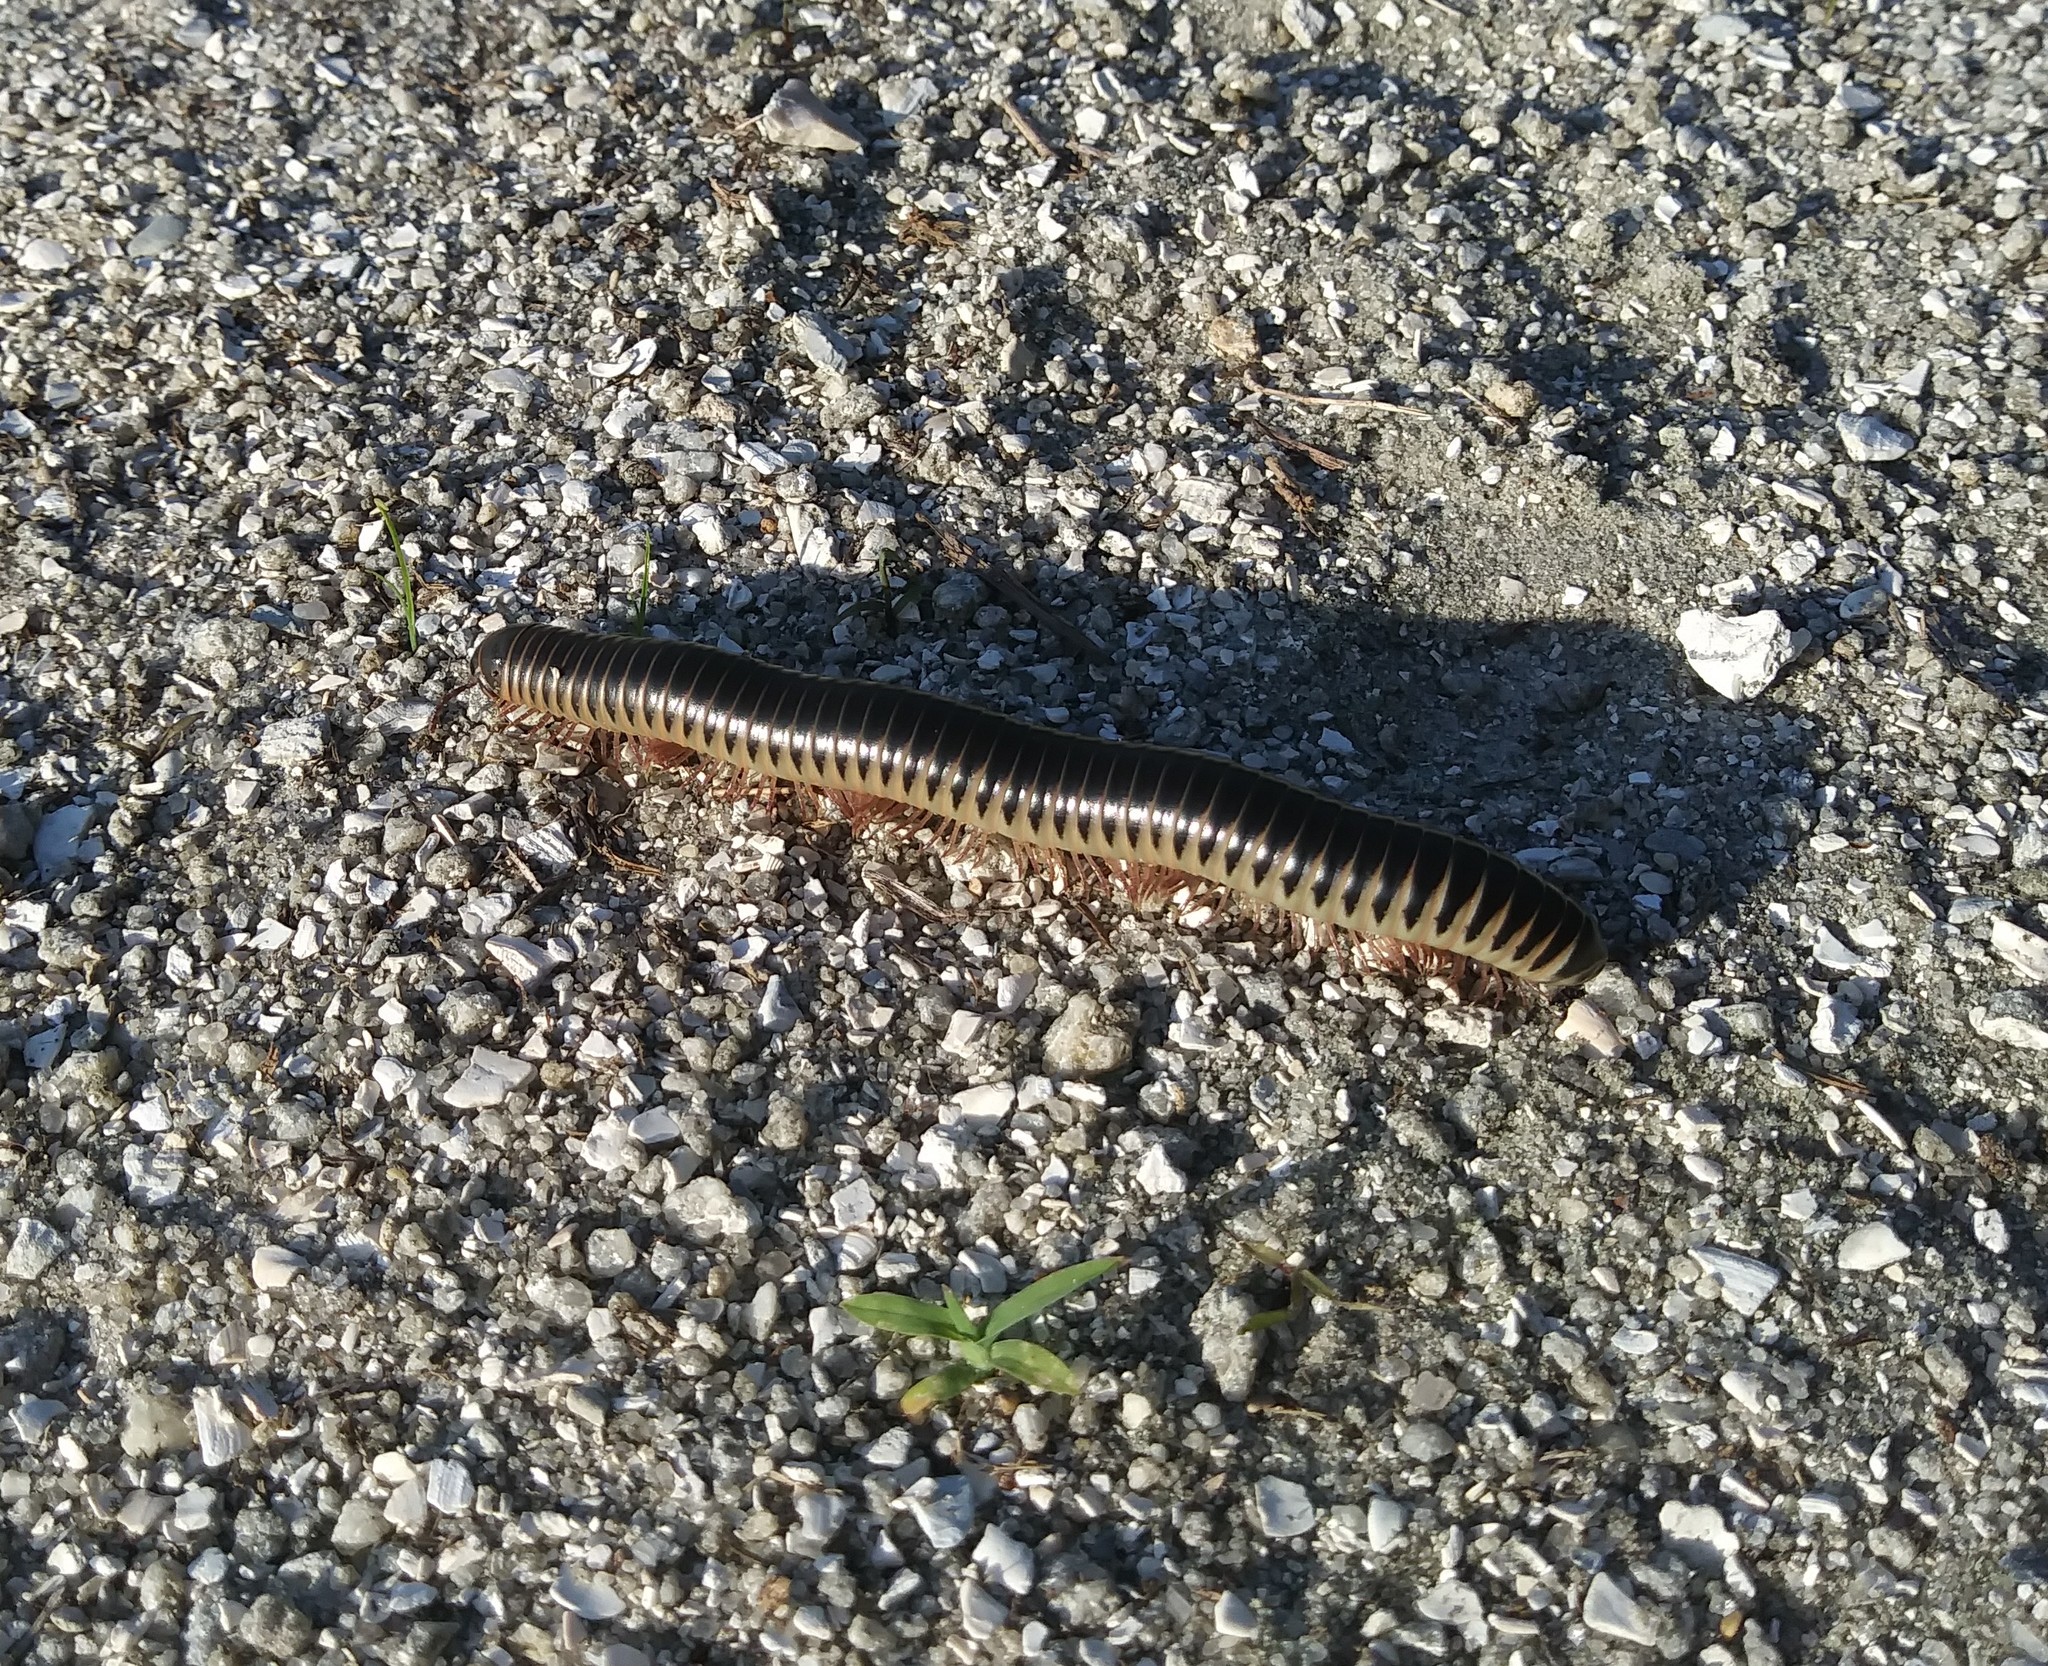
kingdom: Animalia
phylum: Arthropoda
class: Diplopoda
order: Spirobolida
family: Spirobolidae
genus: Chicobolus
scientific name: Chicobolus spinigerus
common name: Florida ivory millipede
